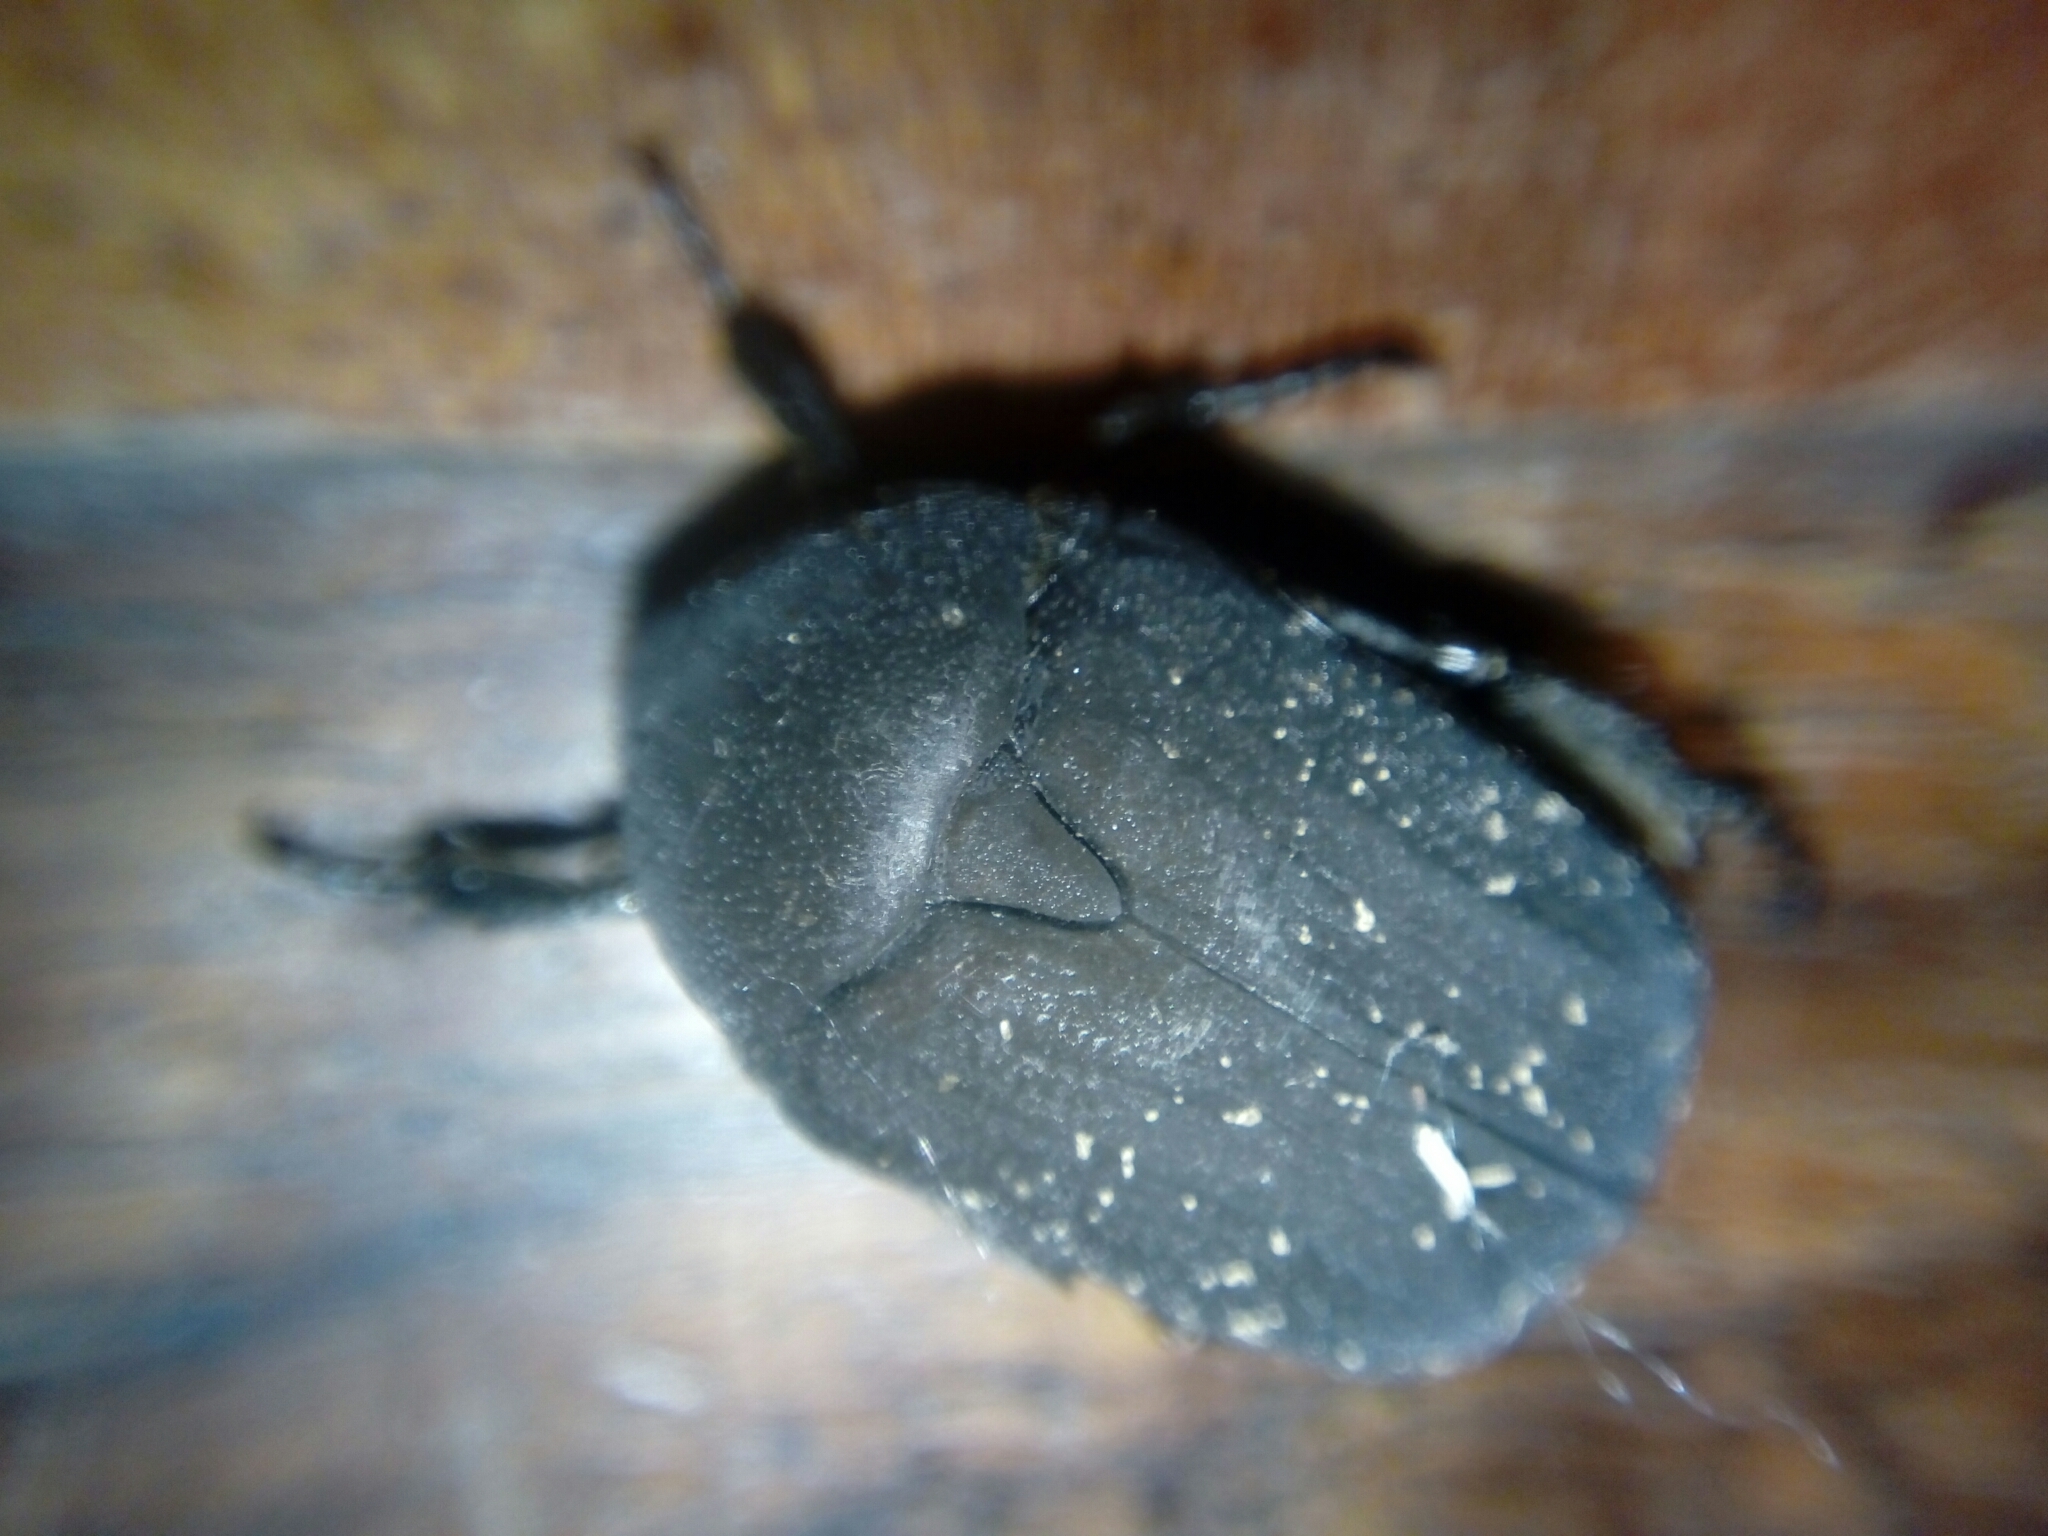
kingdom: Animalia
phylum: Arthropoda
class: Insecta
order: Coleoptera
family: Scarabaeidae
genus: Protaetia
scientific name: Protaetia morio
